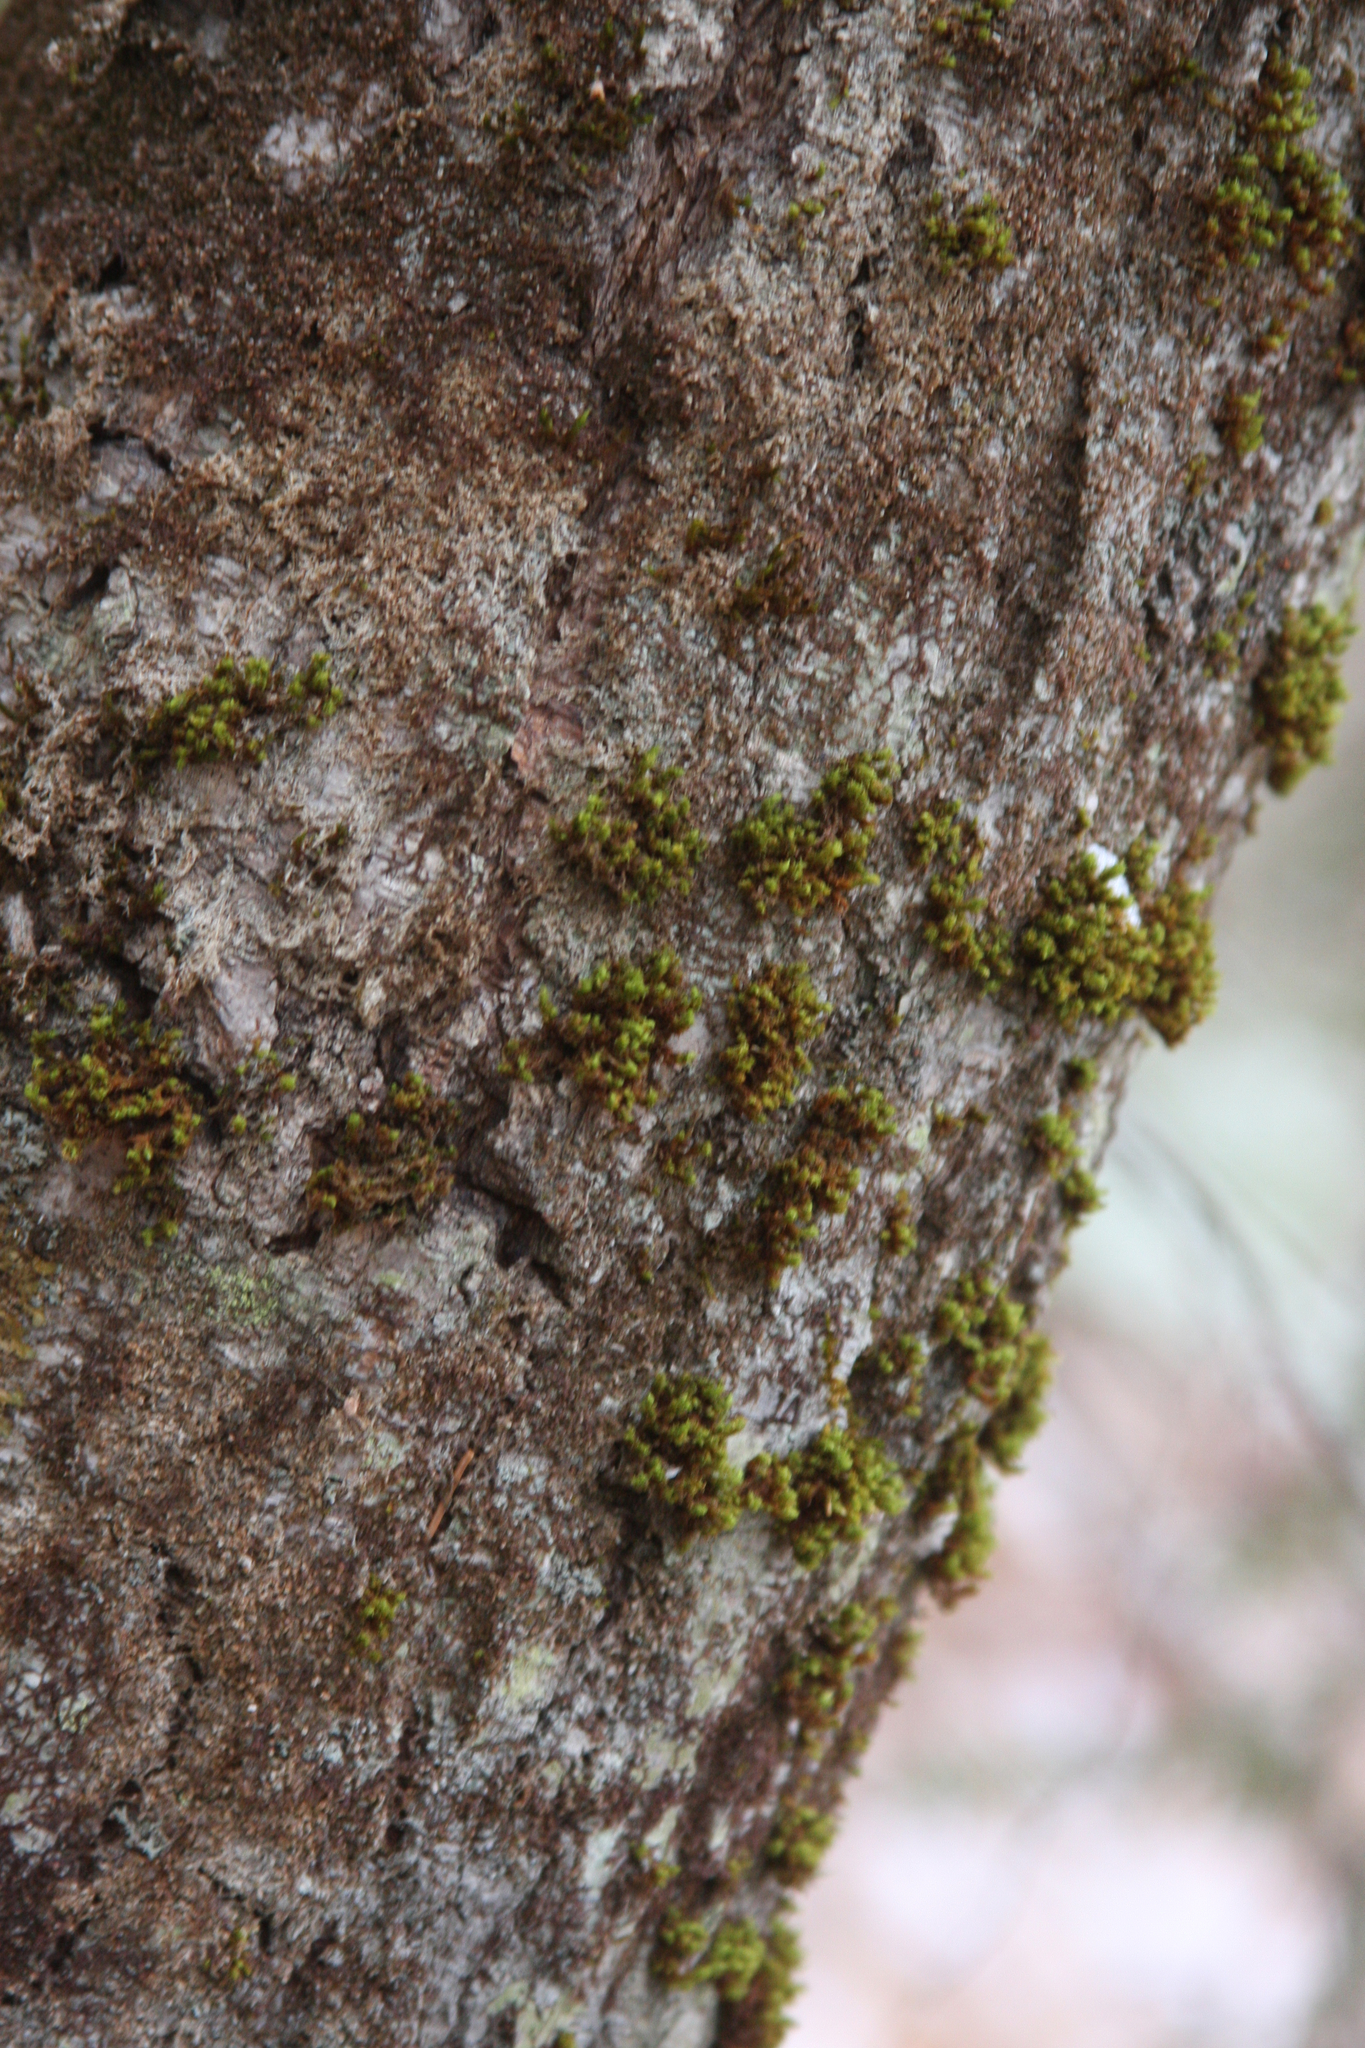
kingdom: Plantae
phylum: Bryophyta
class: Bryopsida
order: Orthotrichales
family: Orthotrichaceae
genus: Ulota
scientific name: Ulota crispa
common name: Crisped pincushion moss
